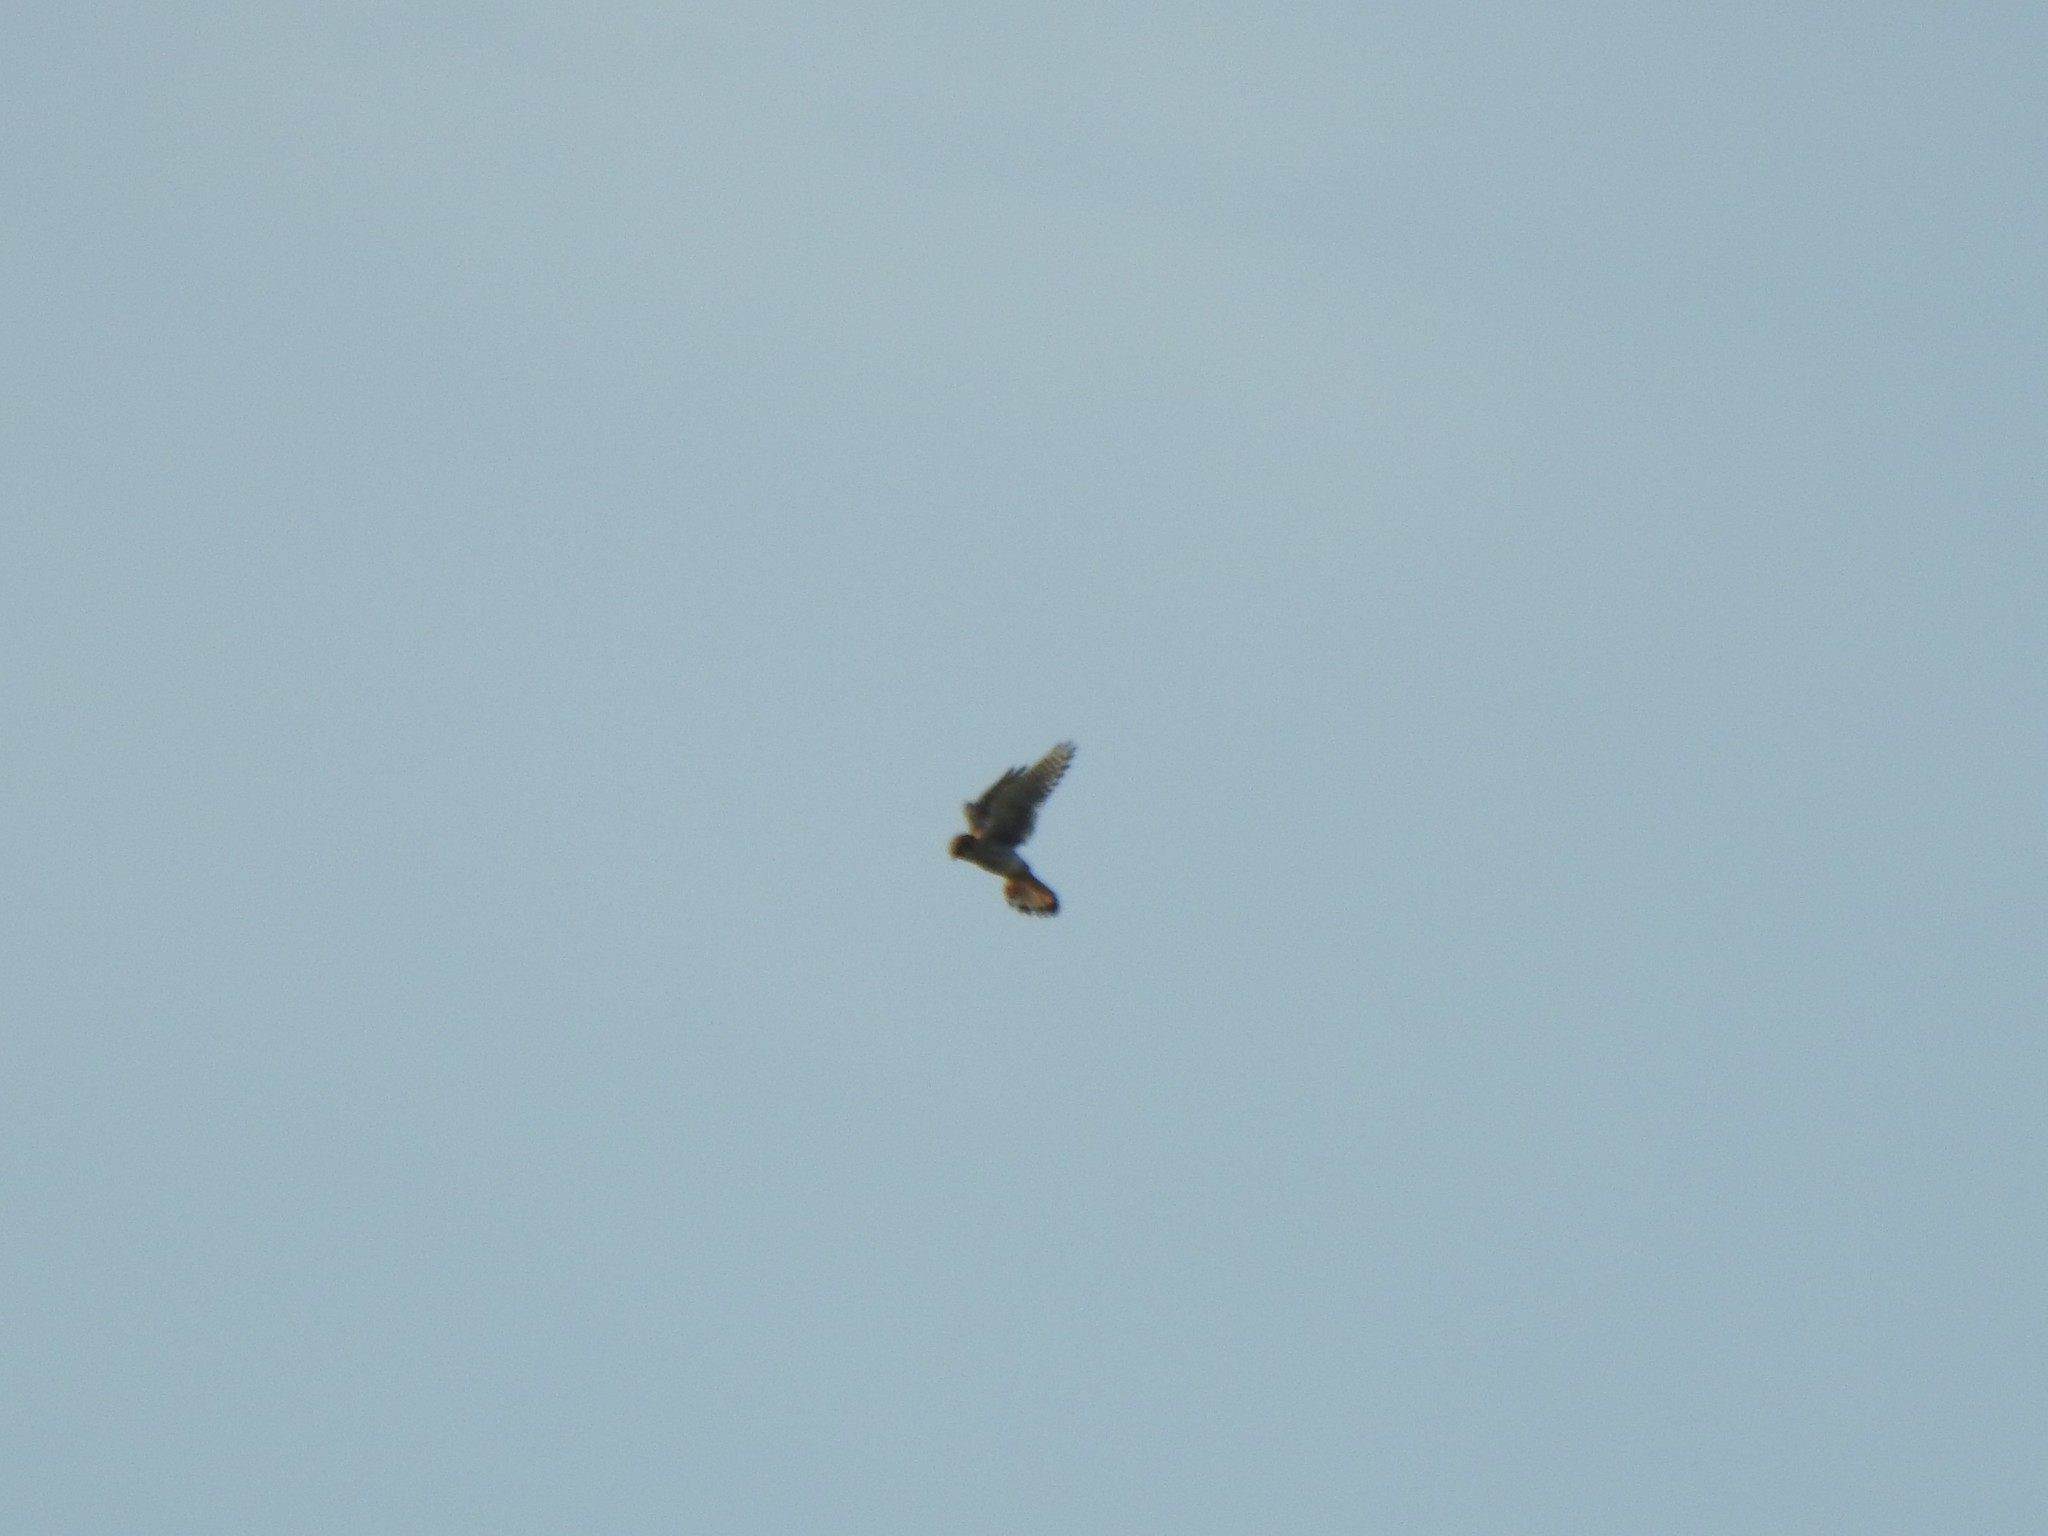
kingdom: Animalia
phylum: Chordata
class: Aves
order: Falconiformes
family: Falconidae
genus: Falco
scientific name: Falco sparverius
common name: American kestrel
